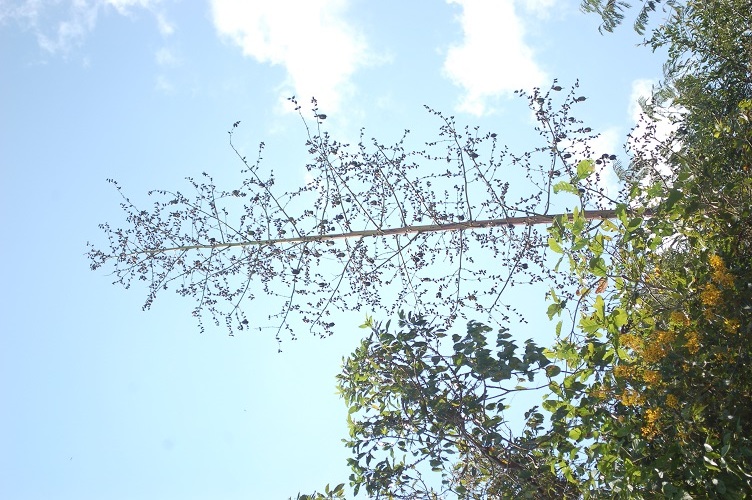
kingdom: Plantae
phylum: Tracheophyta
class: Liliopsida
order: Asparagales
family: Asparagaceae
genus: Furcraea
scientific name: Furcraea guatemalensis
